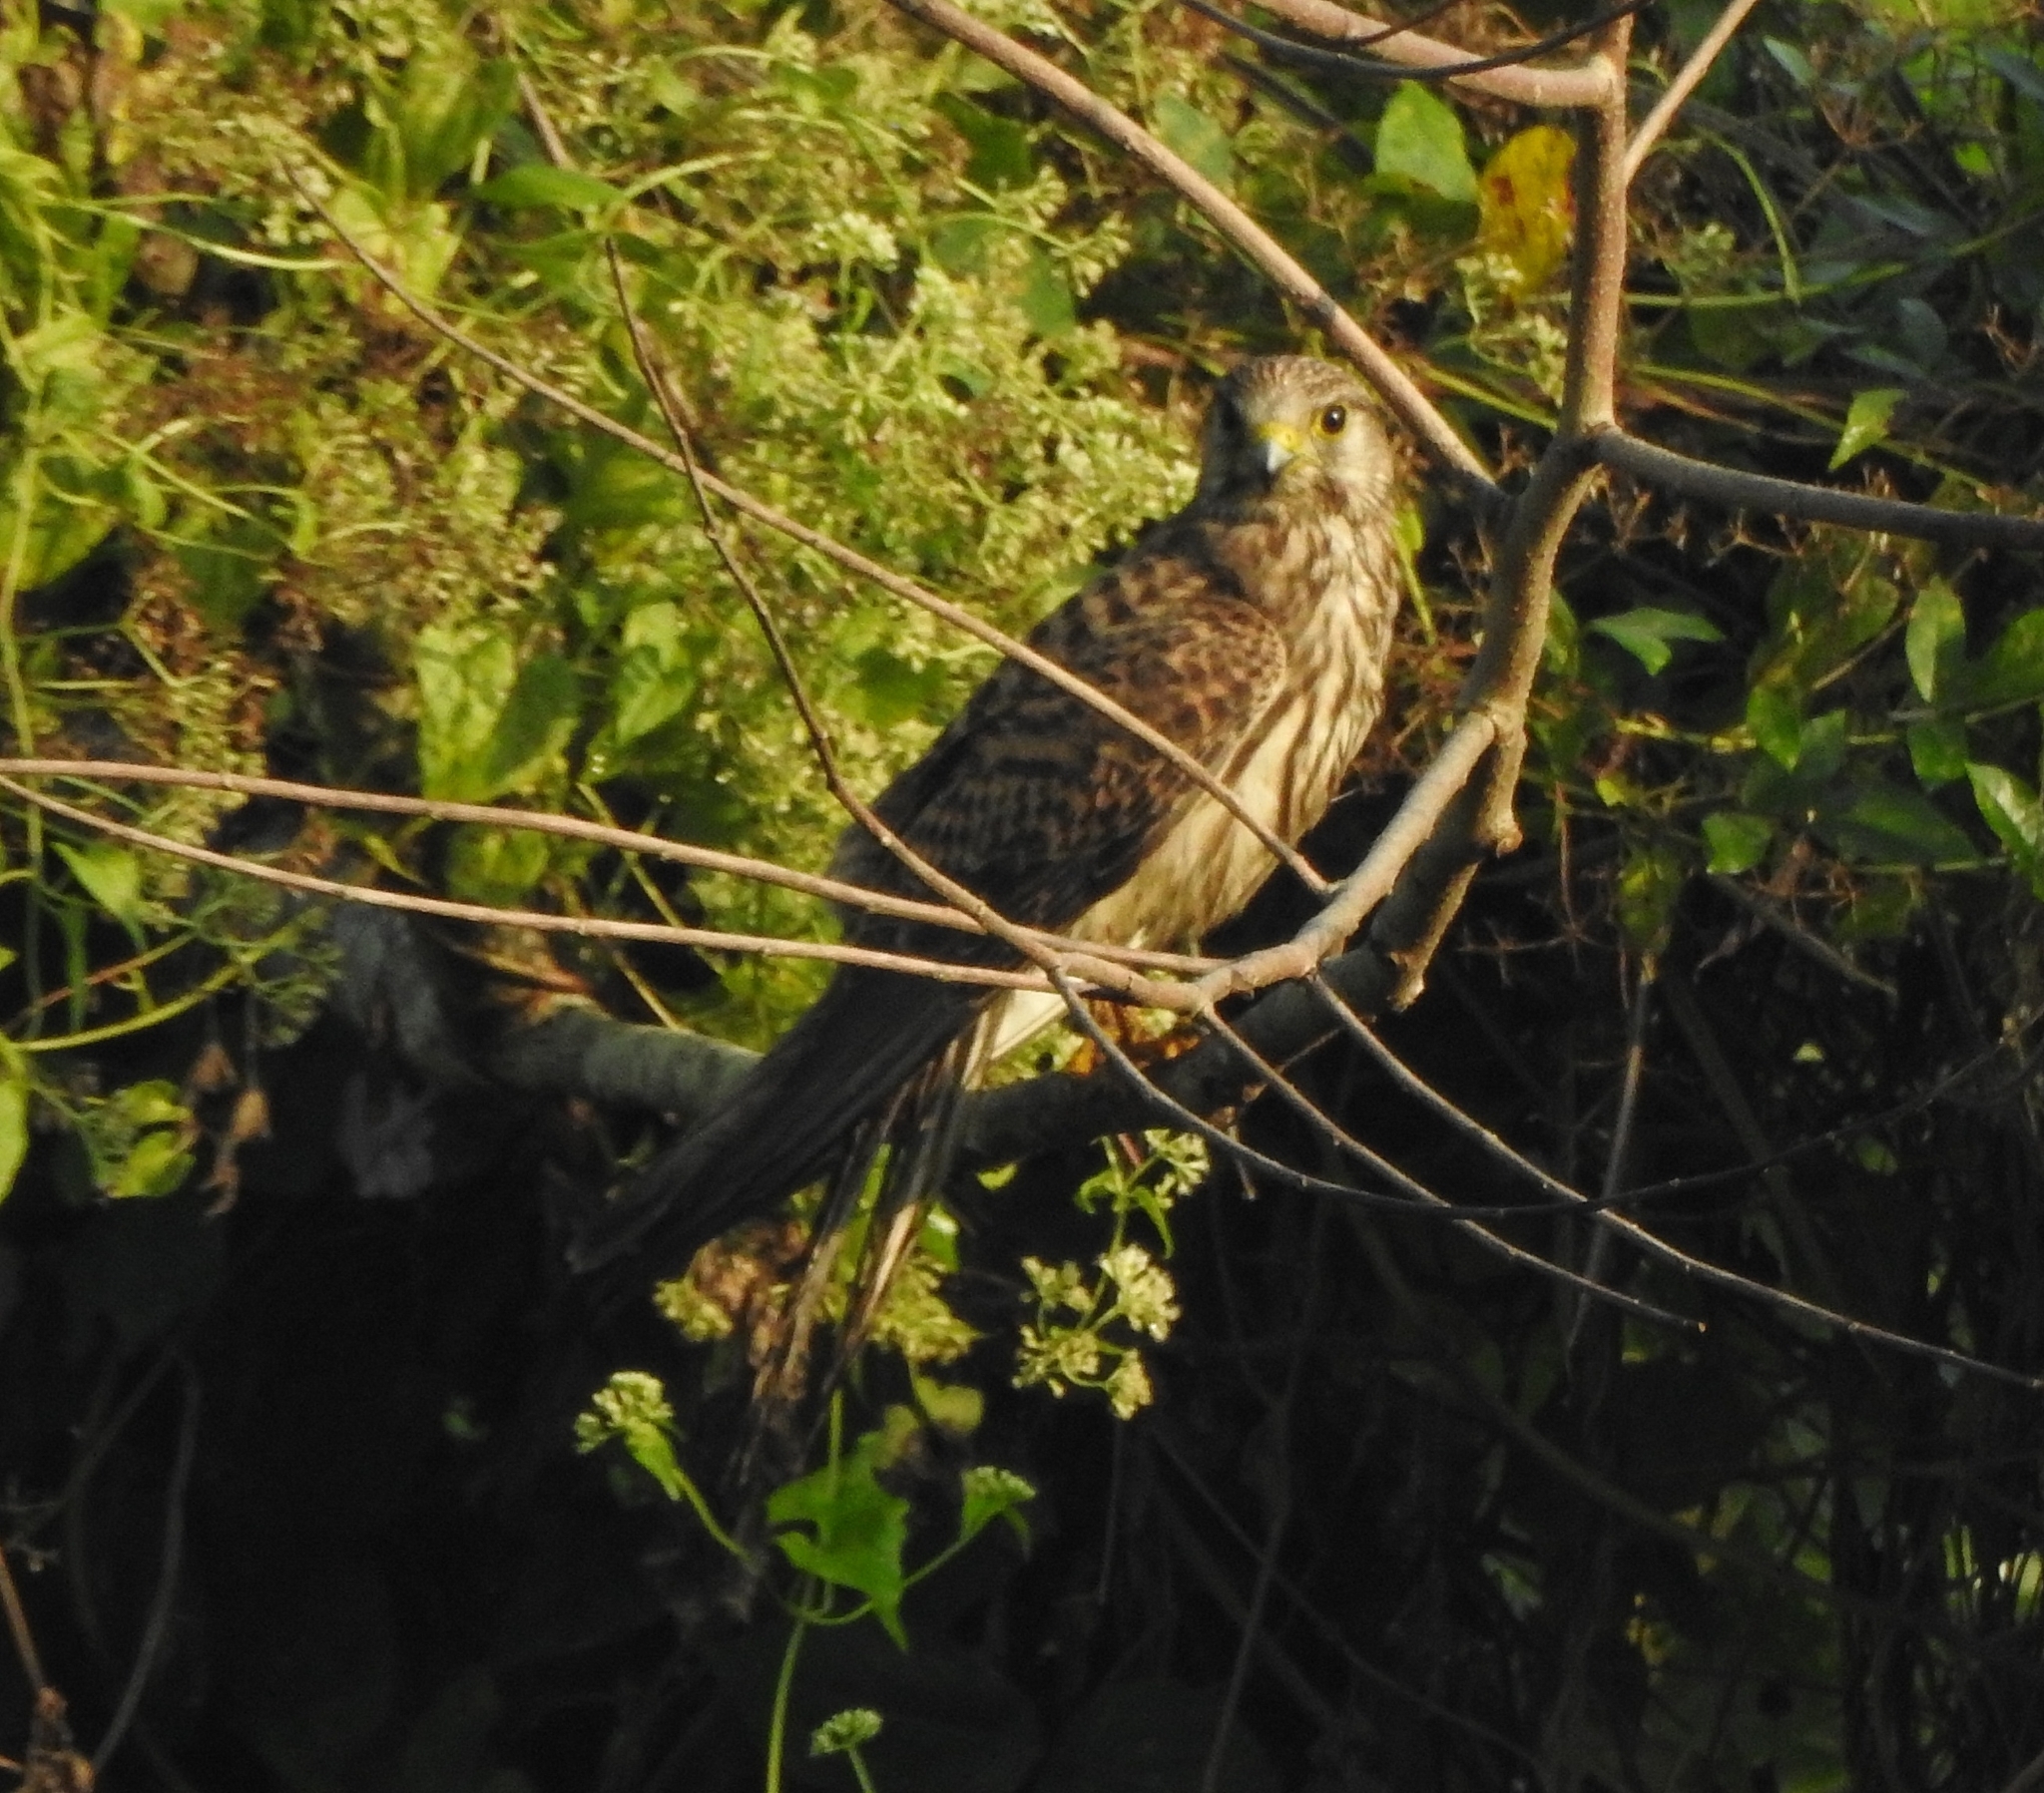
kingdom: Animalia
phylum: Chordata
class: Aves
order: Falconiformes
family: Falconidae
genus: Falco
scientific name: Falco tinnunculus
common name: Common kestrel
